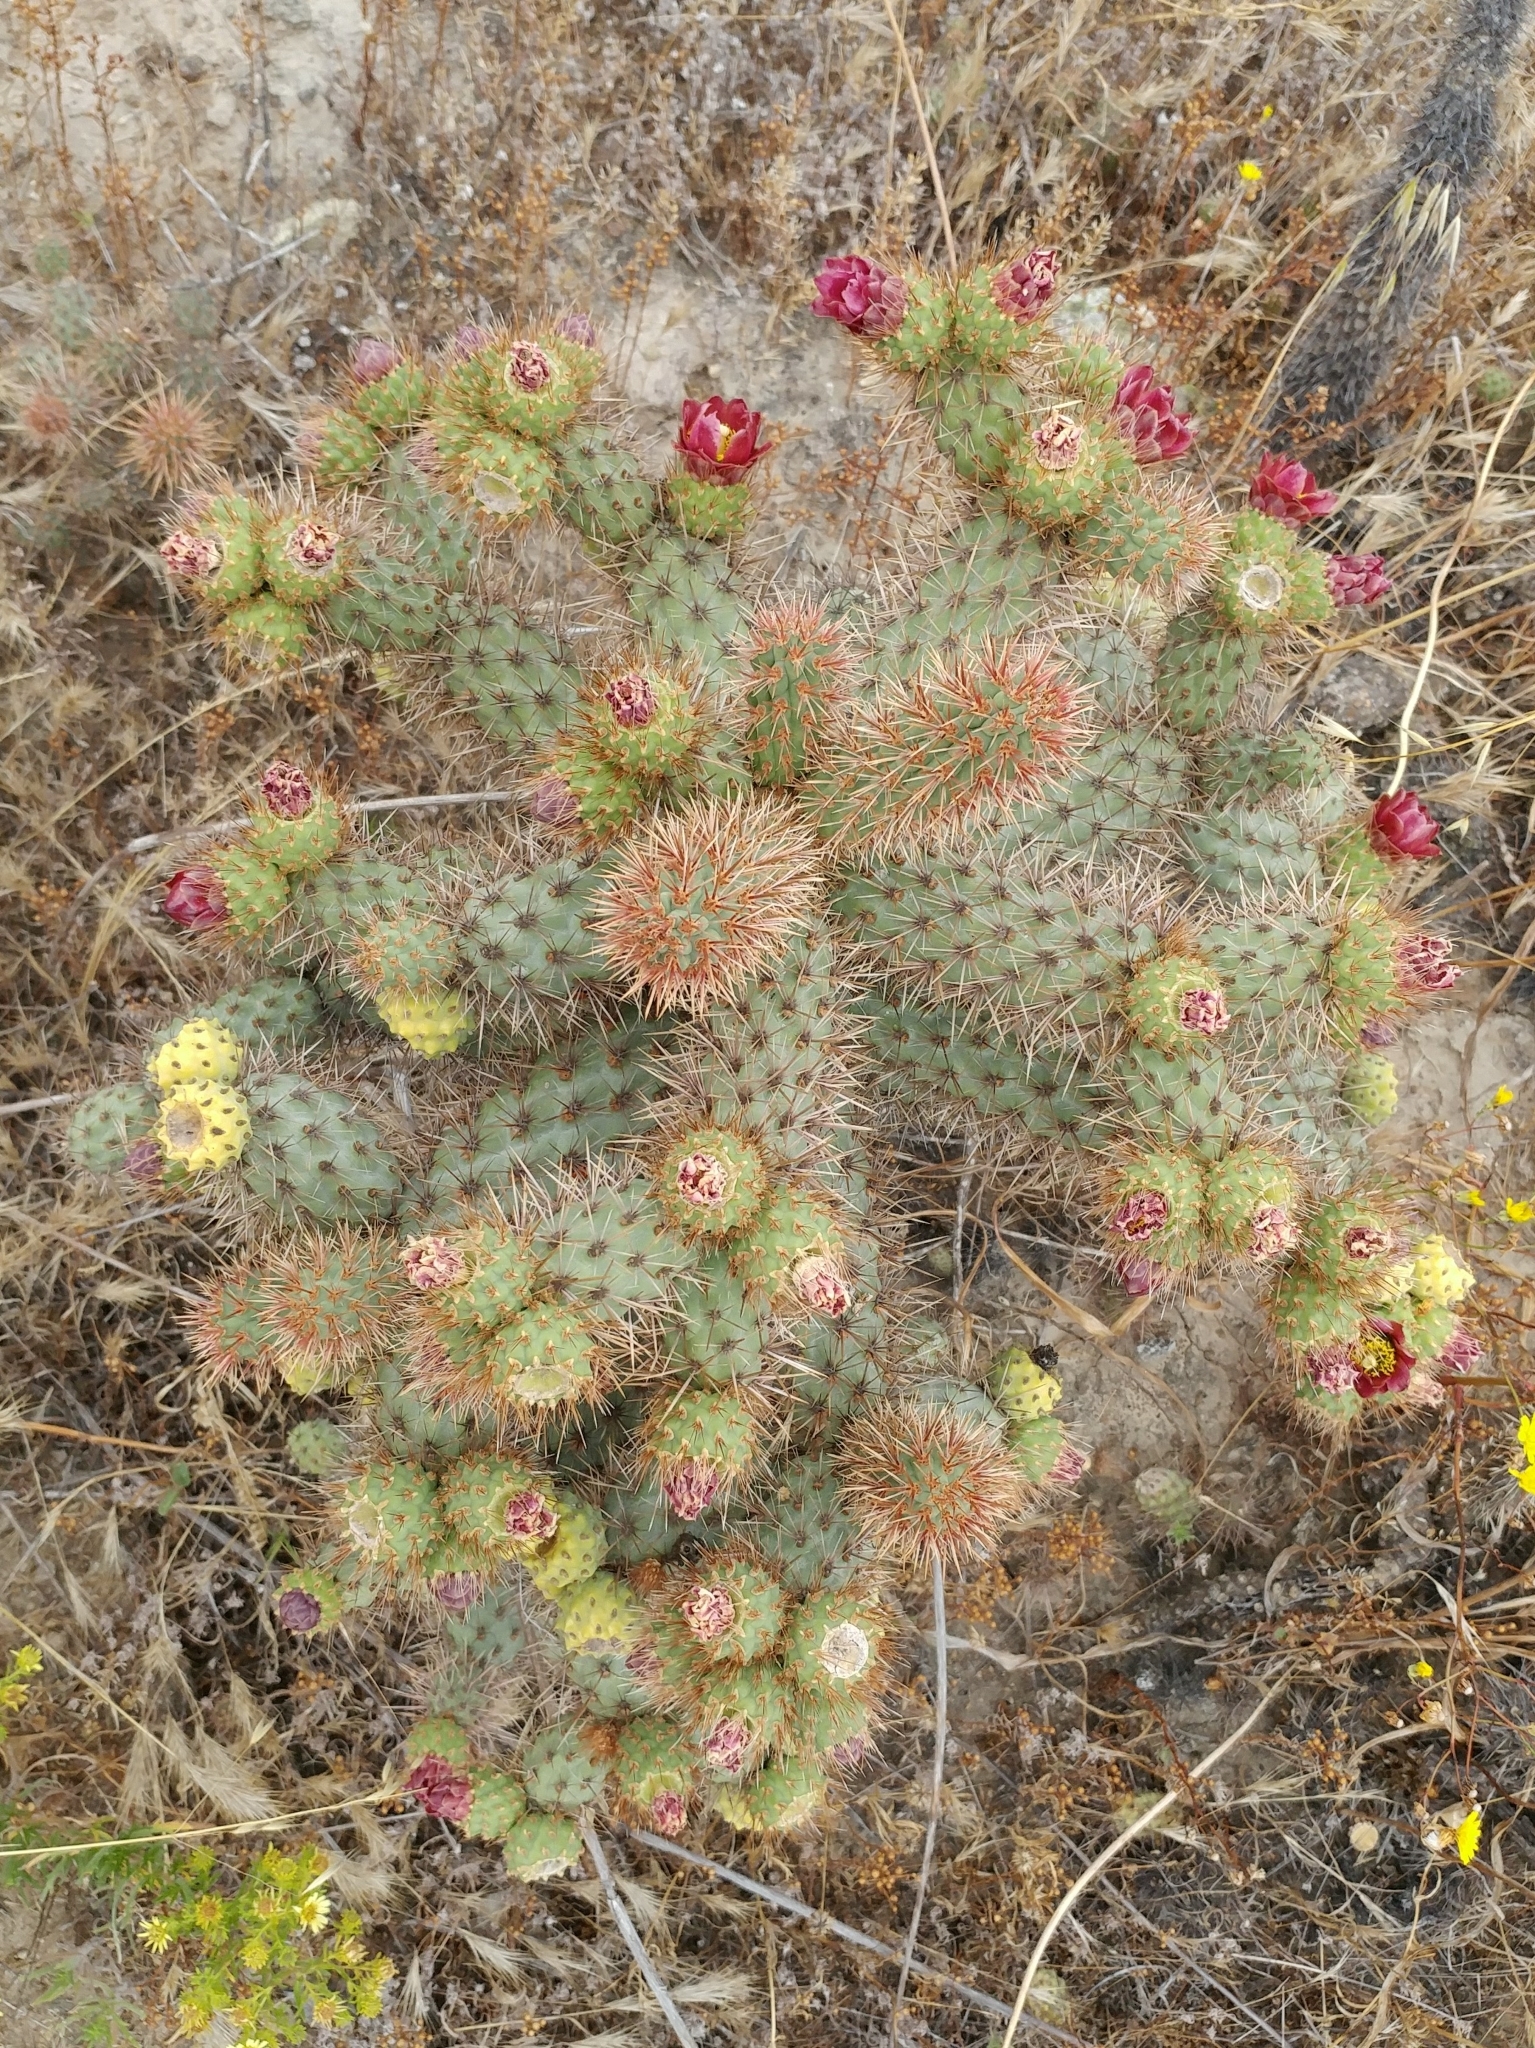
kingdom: Plantae
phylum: Tracheophyta
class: Magnoliopsida
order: Caryophyllales
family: Cactaceae
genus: Cylindropuntia
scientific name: Cylindropuntia prolifera
